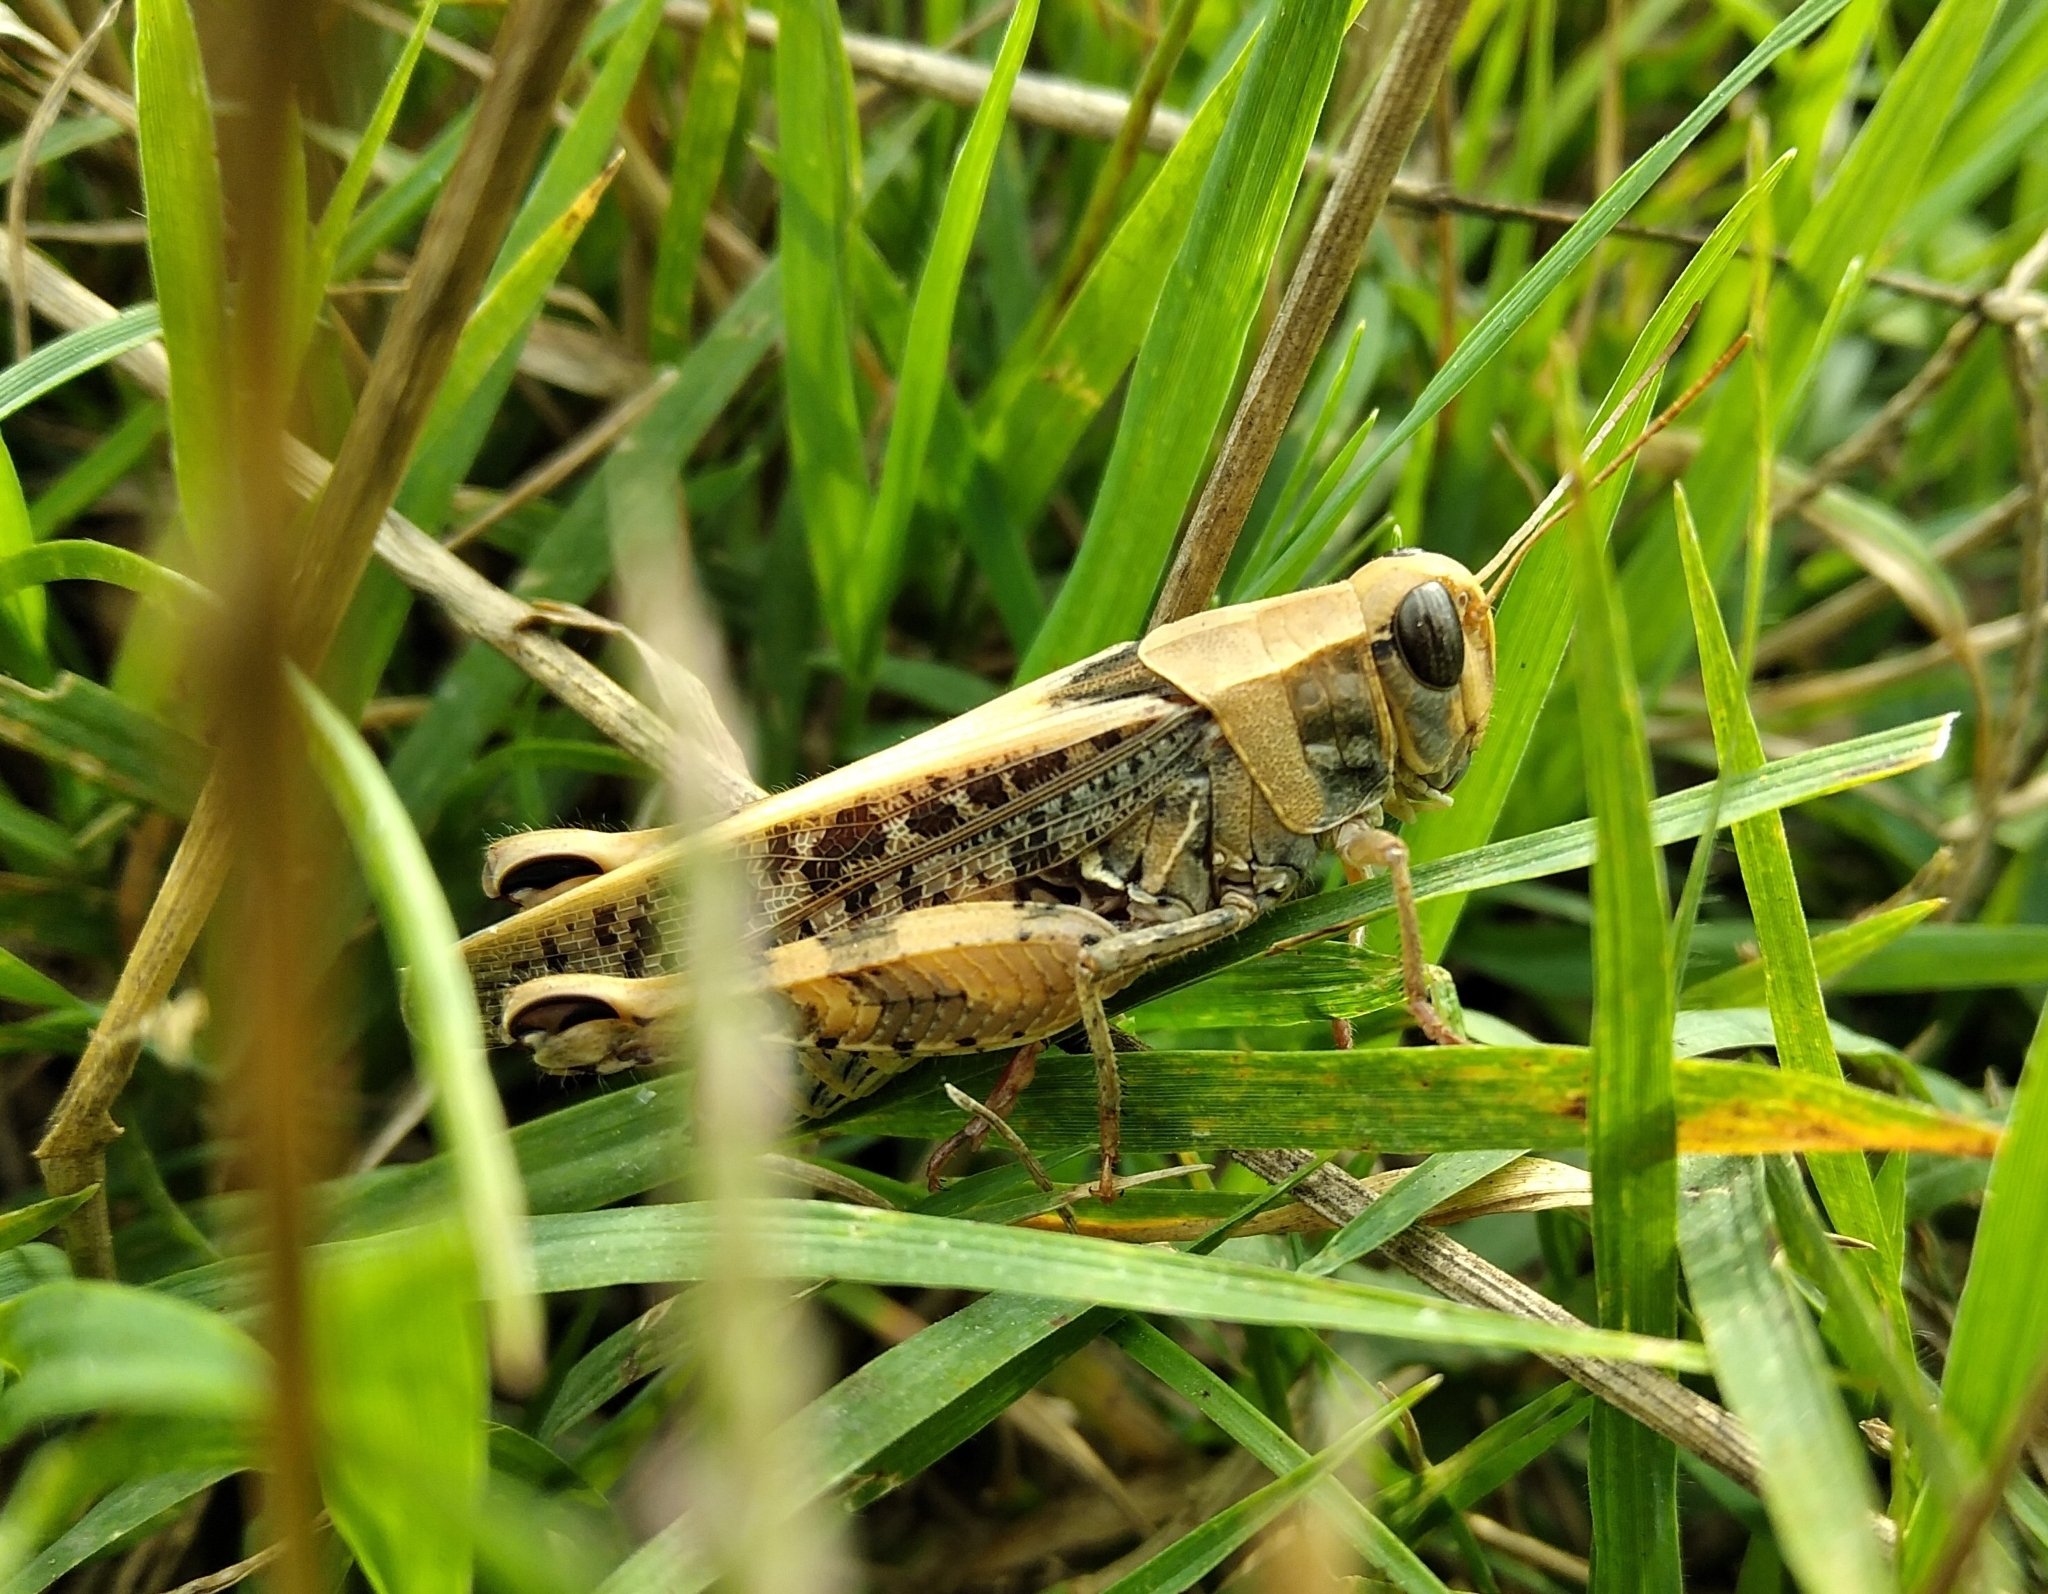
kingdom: Animalia
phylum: Arthropoda
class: Insecta
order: Orthoptera
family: Acrididae
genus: Calliptamus
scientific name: Calliptamus italicus
